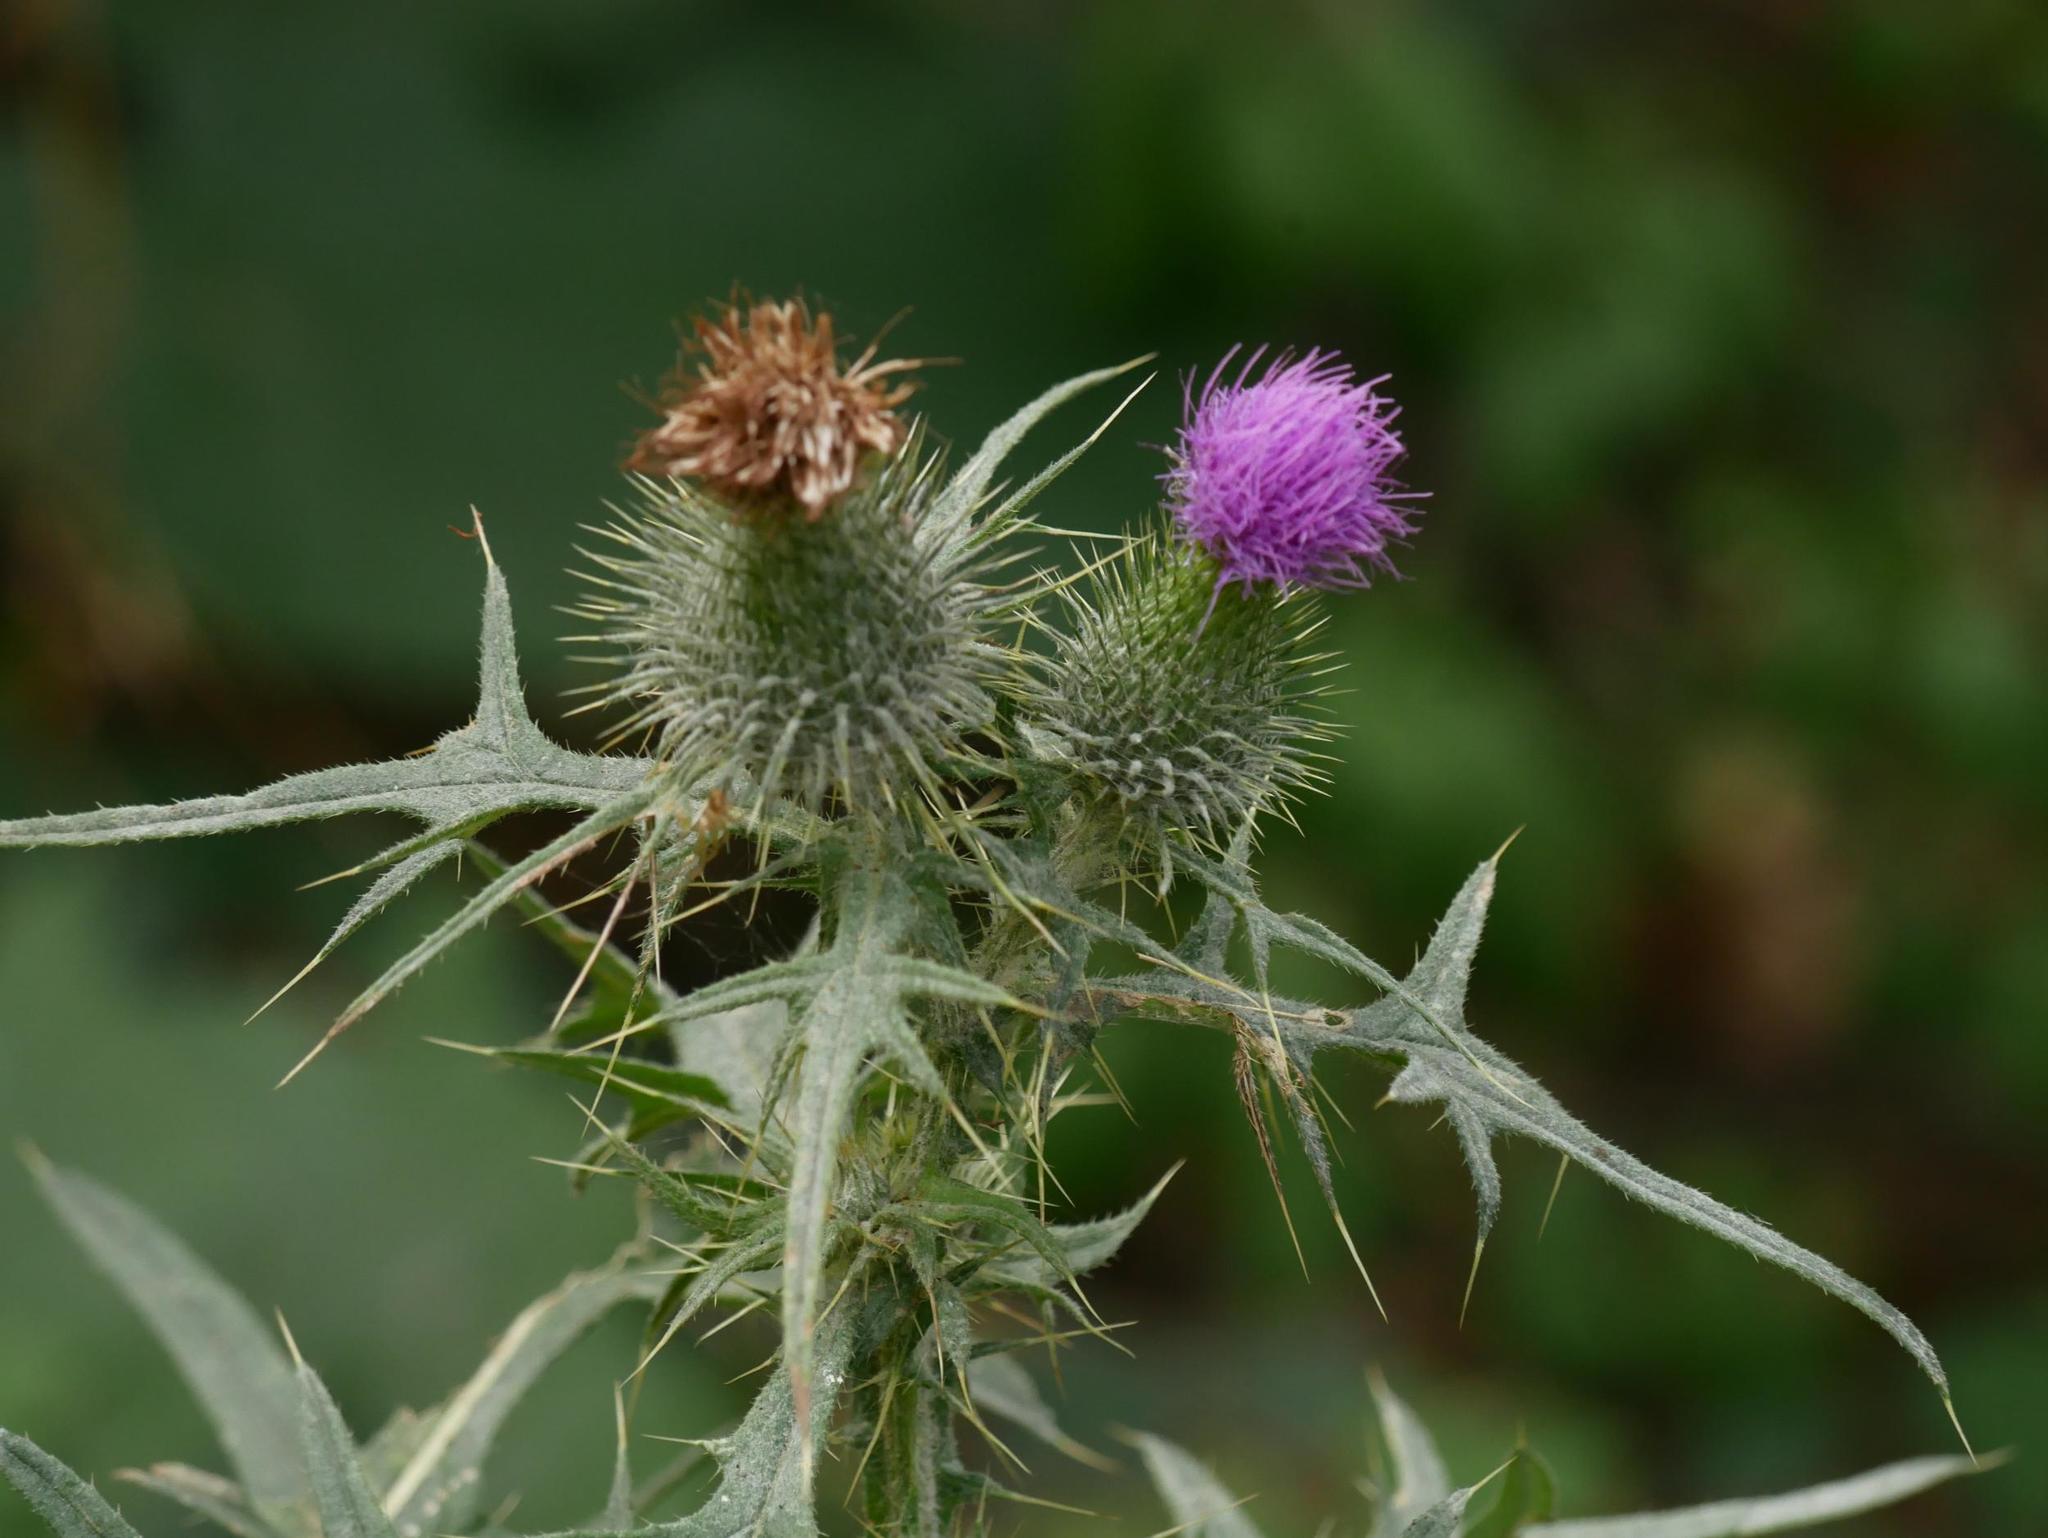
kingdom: Plantae
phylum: Tracheophyta
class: Magnoliopsida
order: Asterales
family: Asteraceae
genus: Cirsium
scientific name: Cirsium vulgare
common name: Bull thistle
